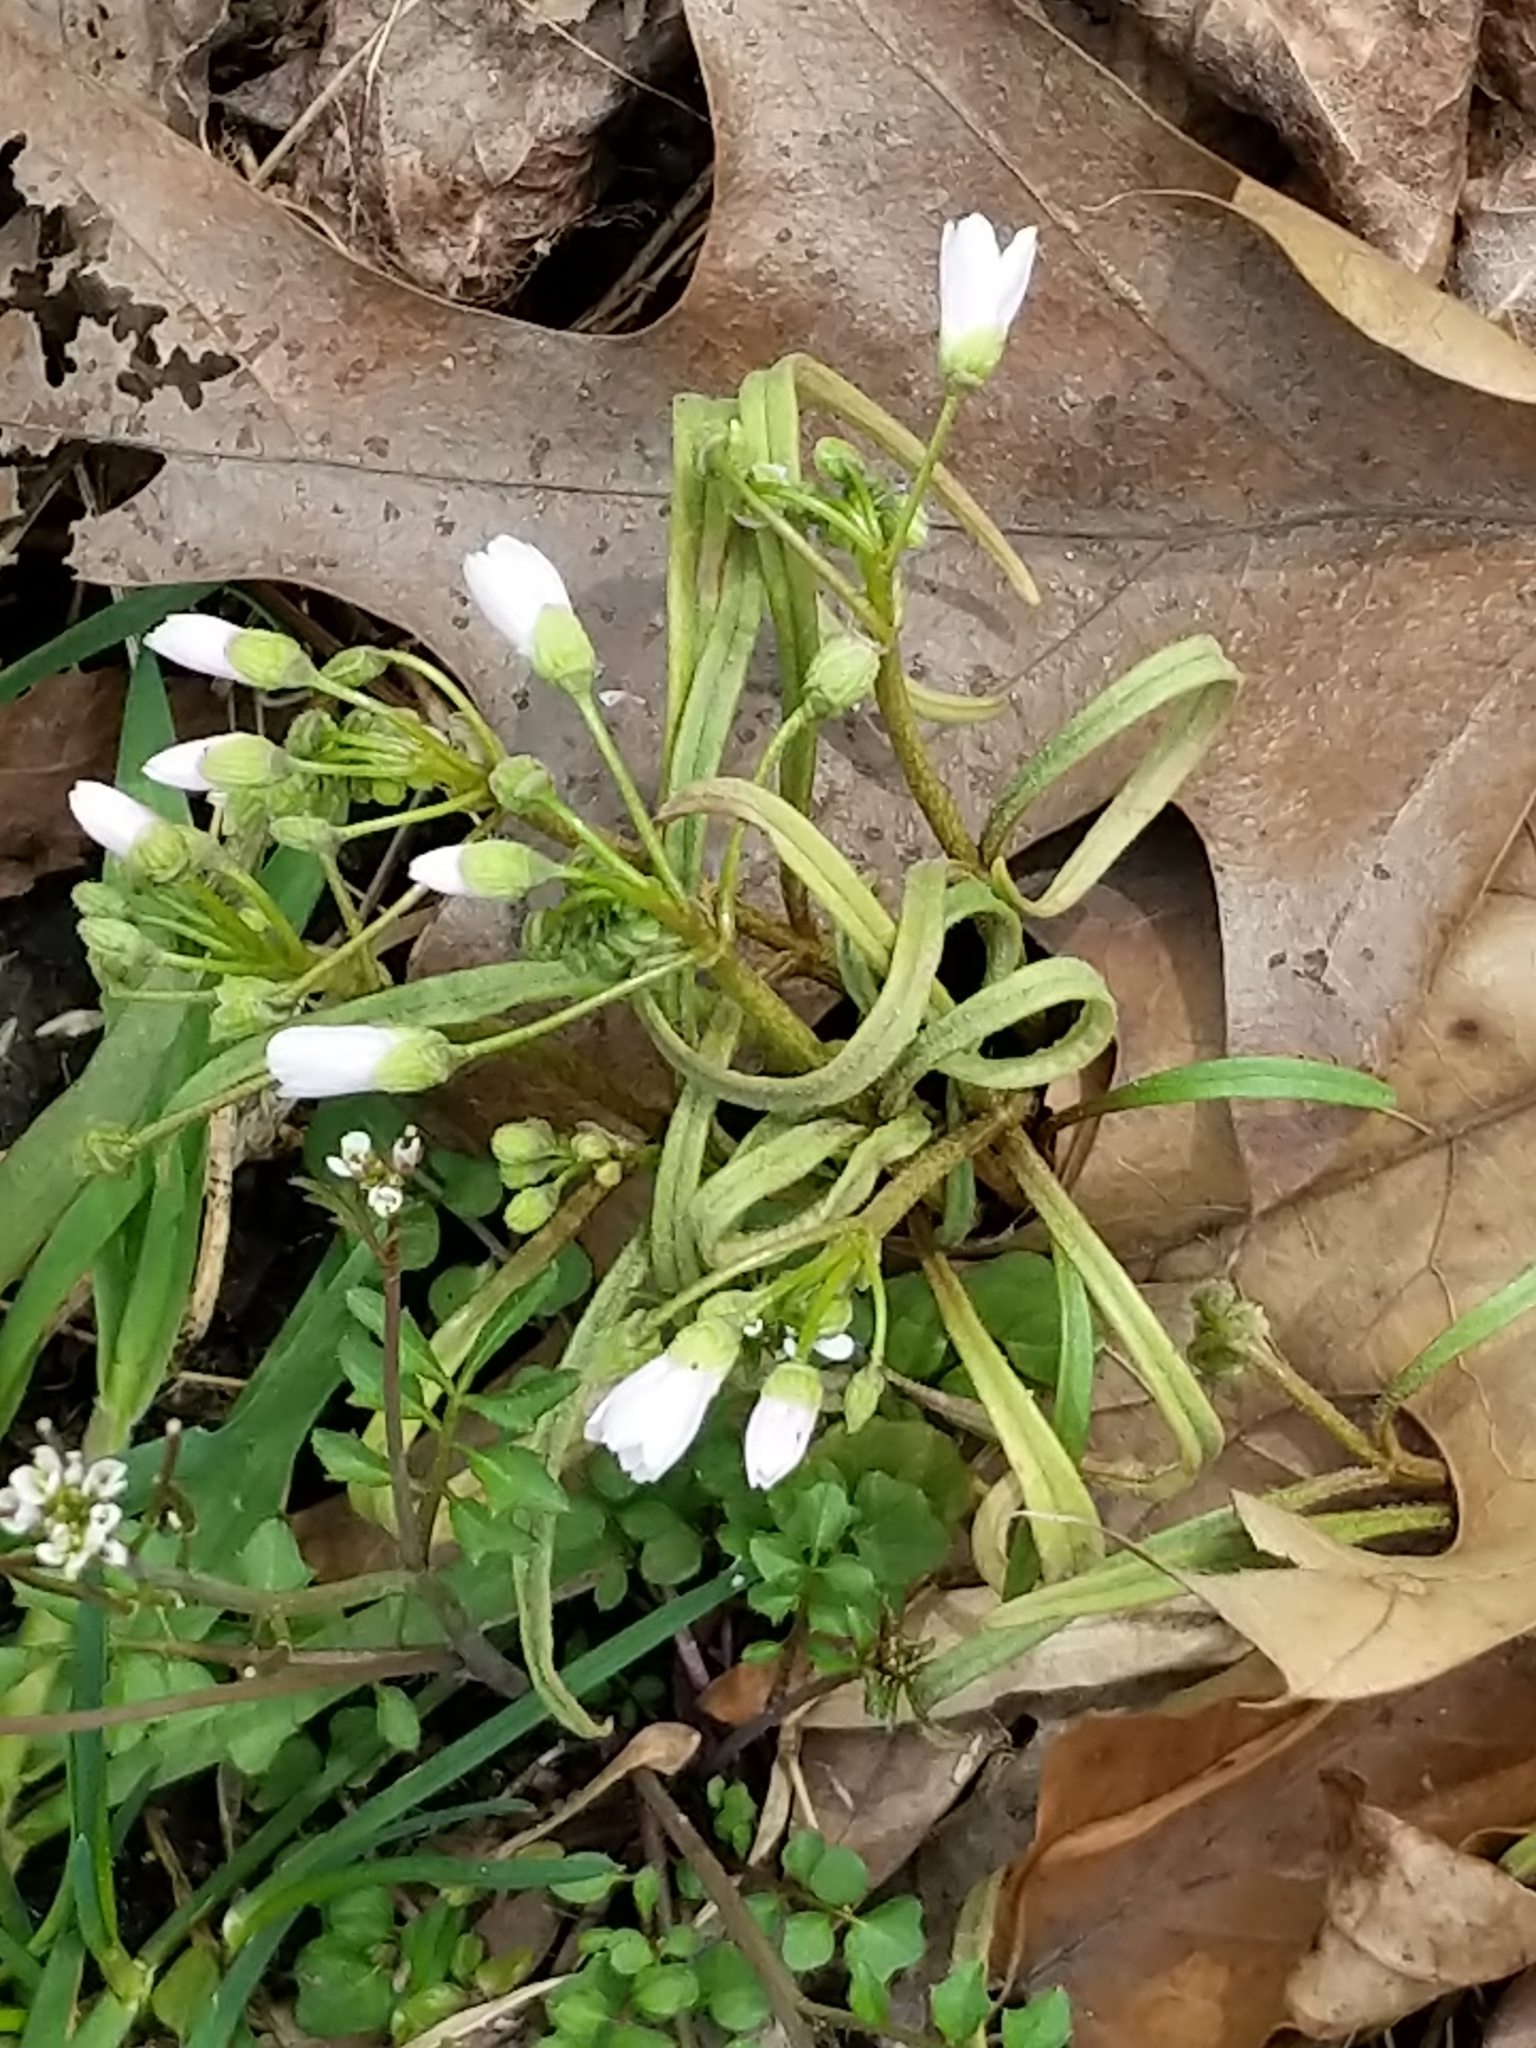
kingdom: Plantae
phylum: Tracheophyta
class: Magnoliopsida
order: Caryophyllales
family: Montiaceae
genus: Claytonia
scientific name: Claytonia virginica
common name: Virginia springbeauty
